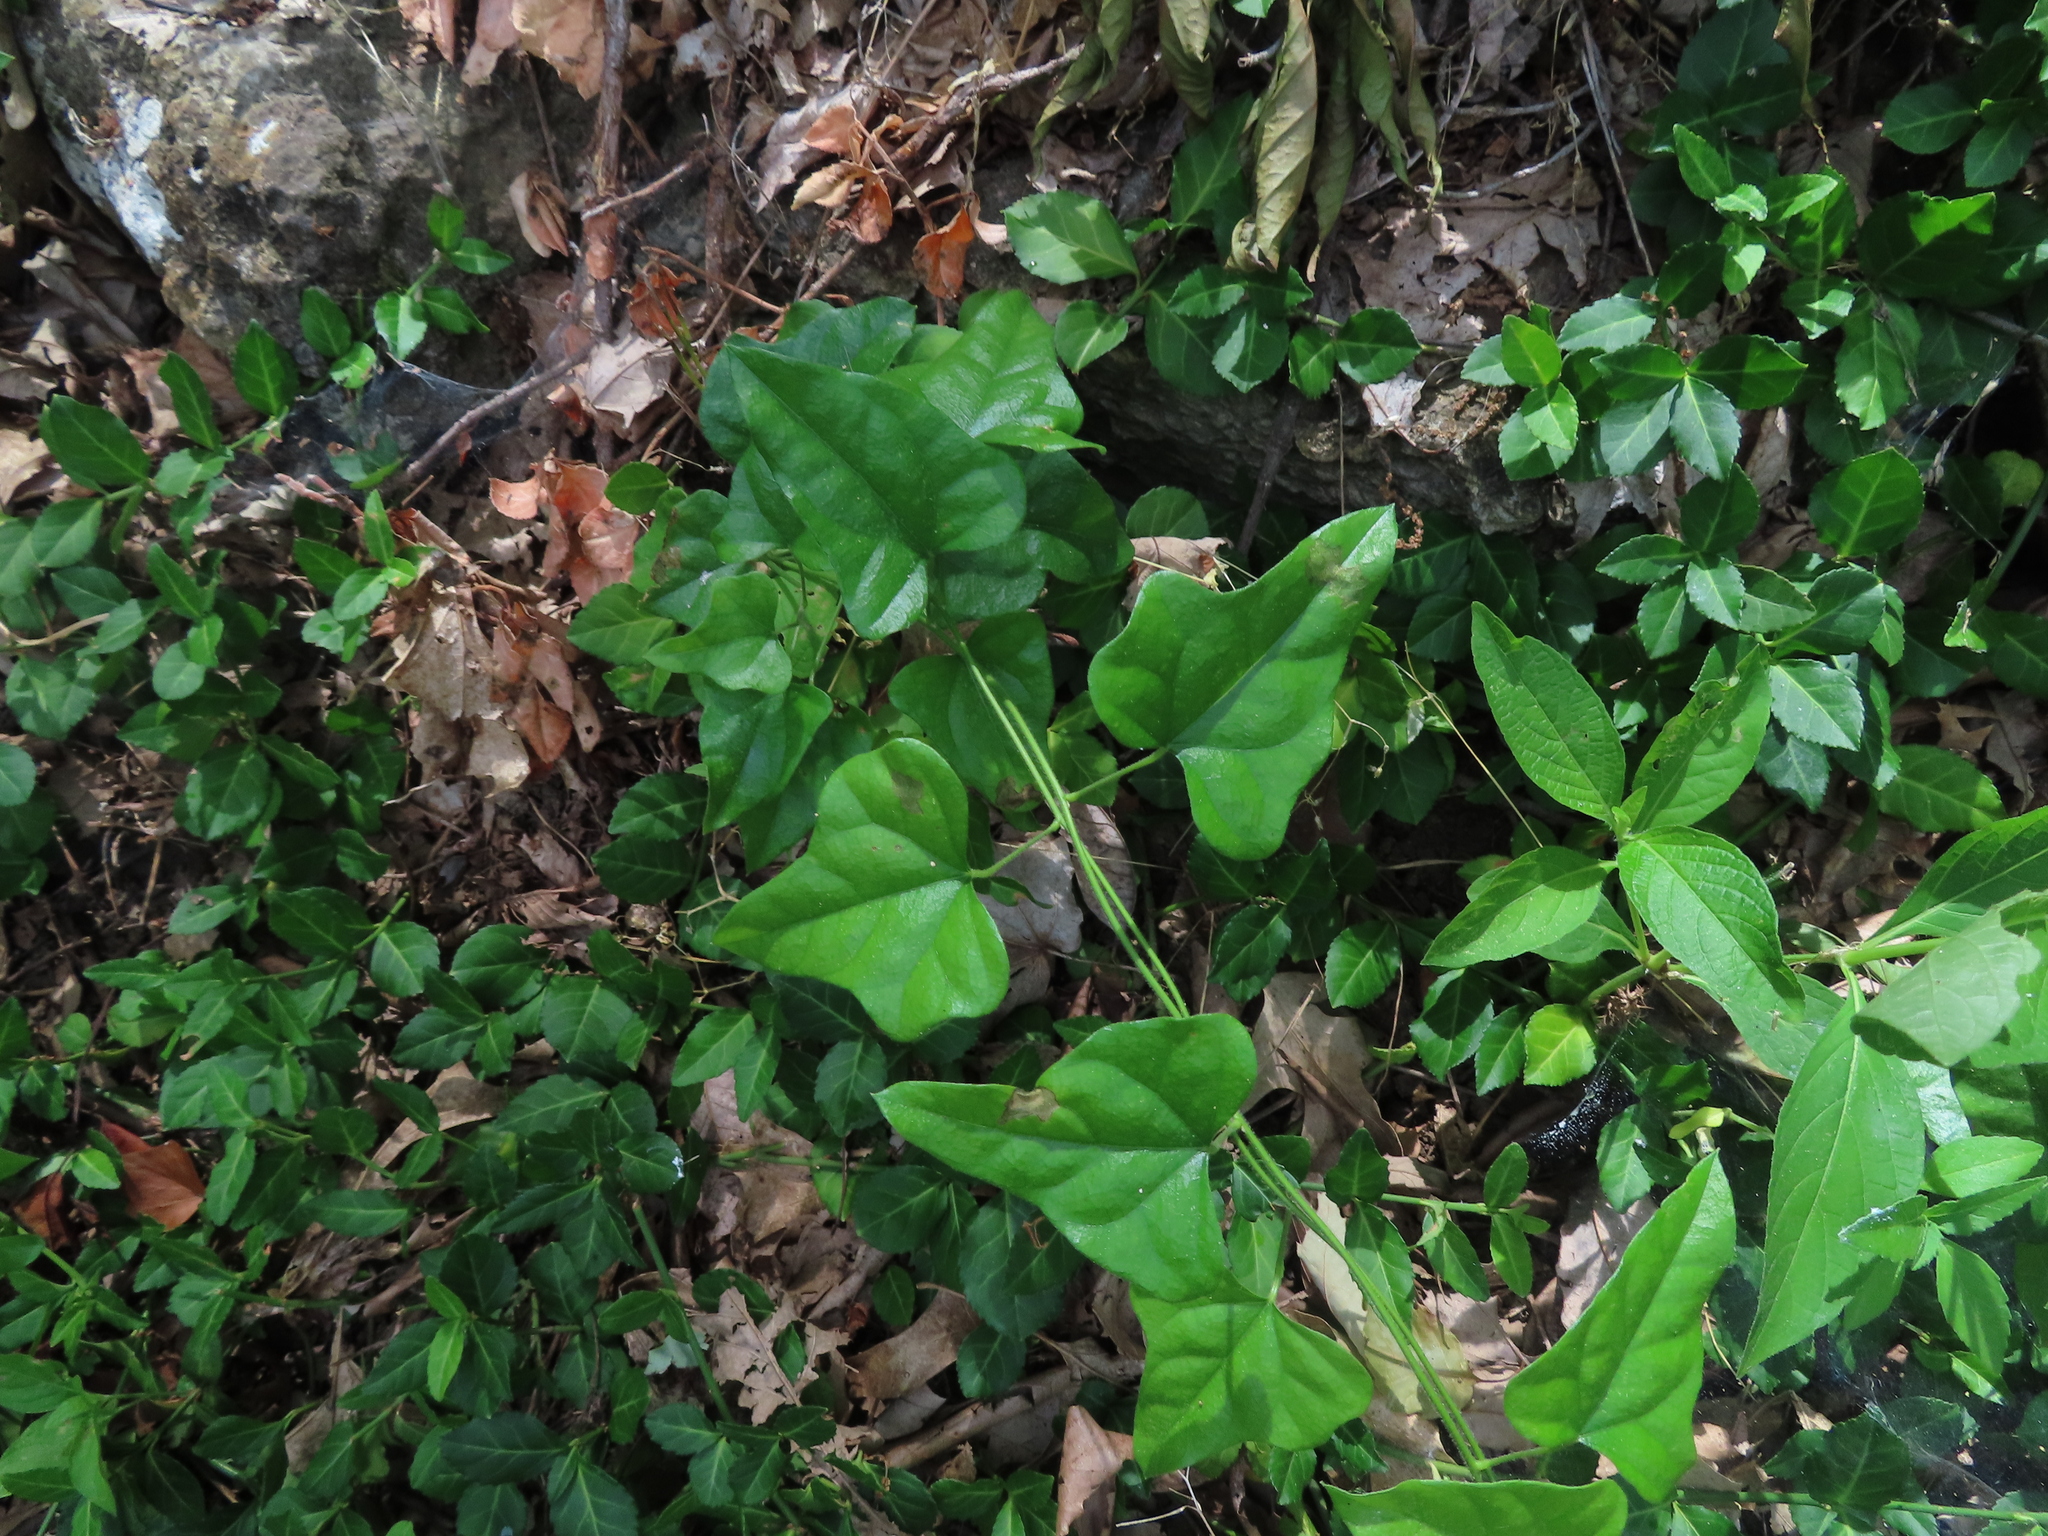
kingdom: Plantae
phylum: Tracheophyta
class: Magnoliopsida
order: Ranunculales
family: Menispermaceae
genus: Cocculus
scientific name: Cocculus carolinus
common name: Carolina moonseed
